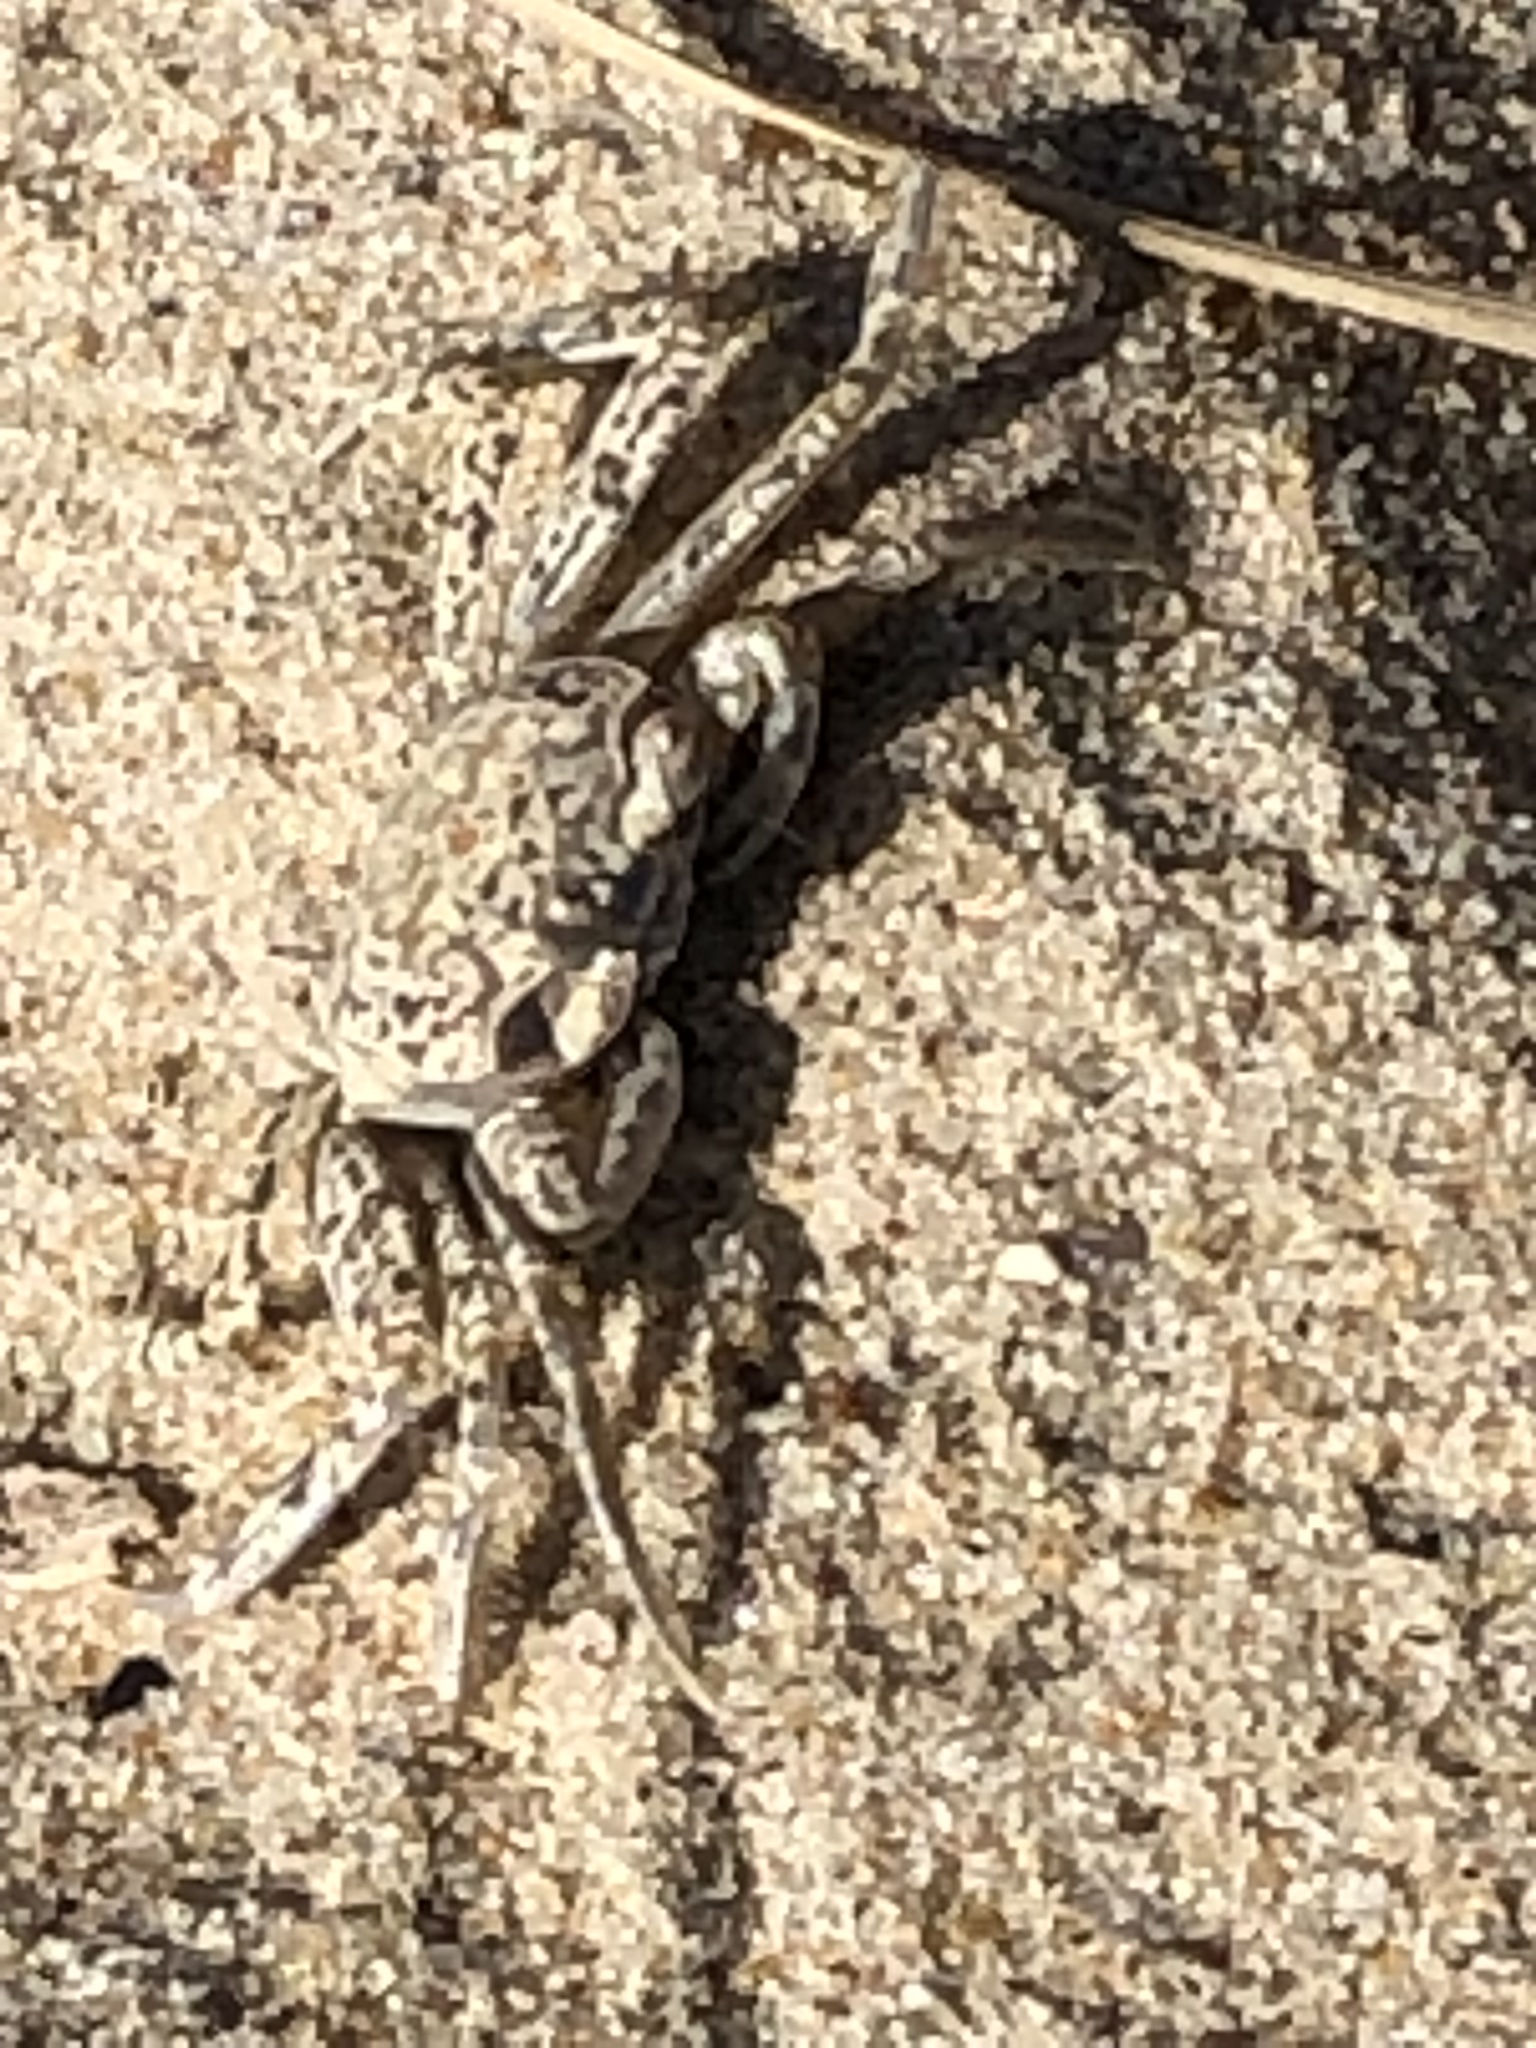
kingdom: Animalia
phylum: Arthropoda
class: Malacostraca
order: Decapoda
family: Ocypodidae
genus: Ocypode
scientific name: Ocypode quadrata
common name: Ghost crab
